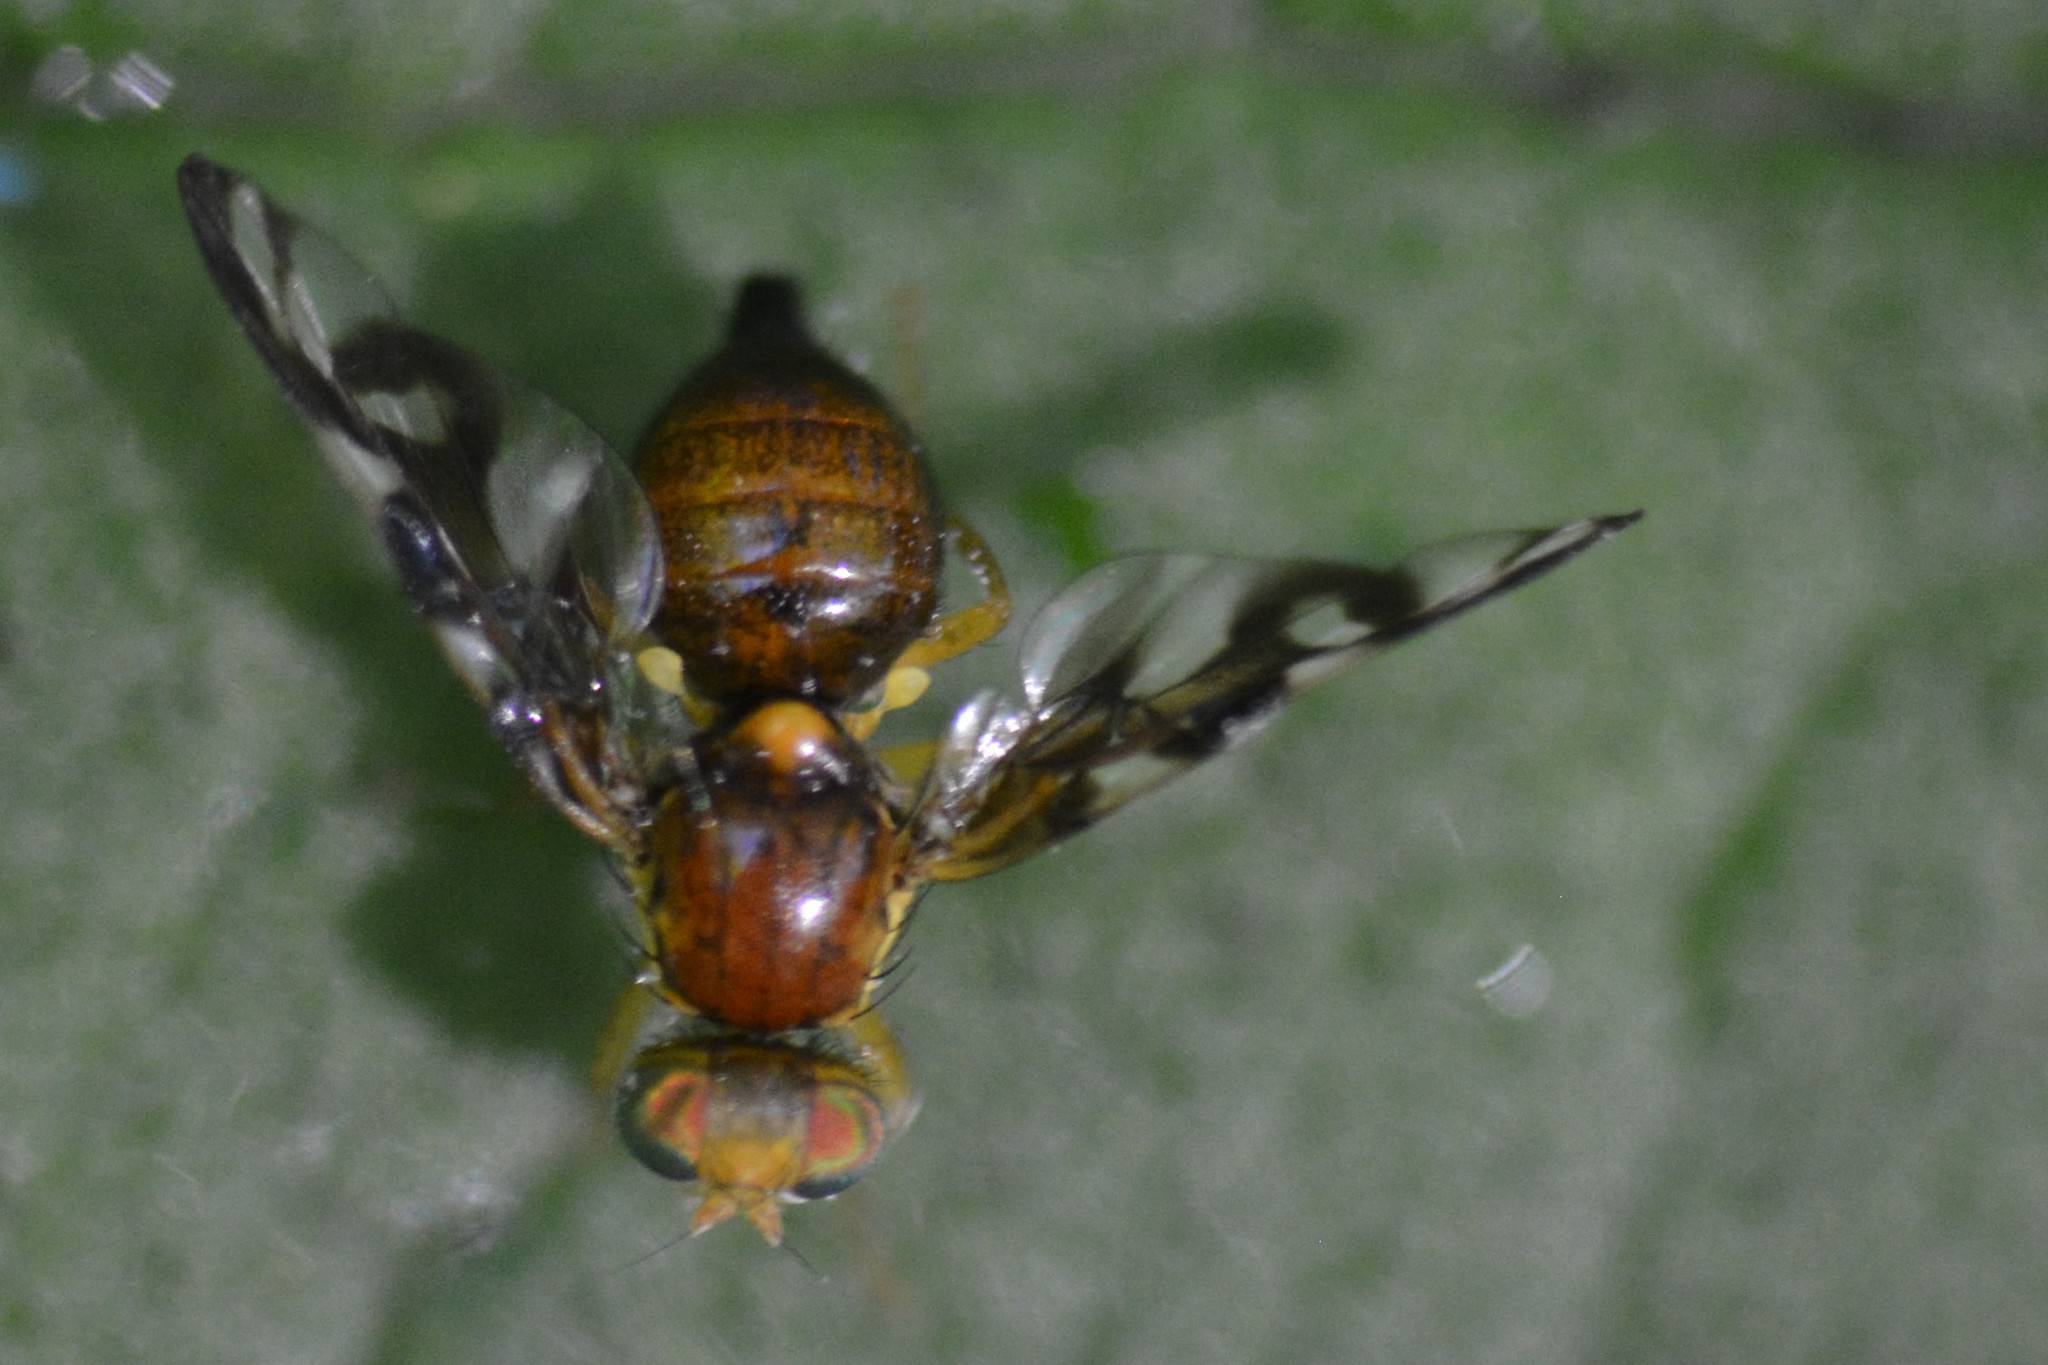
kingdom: Animalia
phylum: Arthropoda
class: Insecta
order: Diptera
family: Tephritidae
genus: Euleia
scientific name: Euleia heraclei
